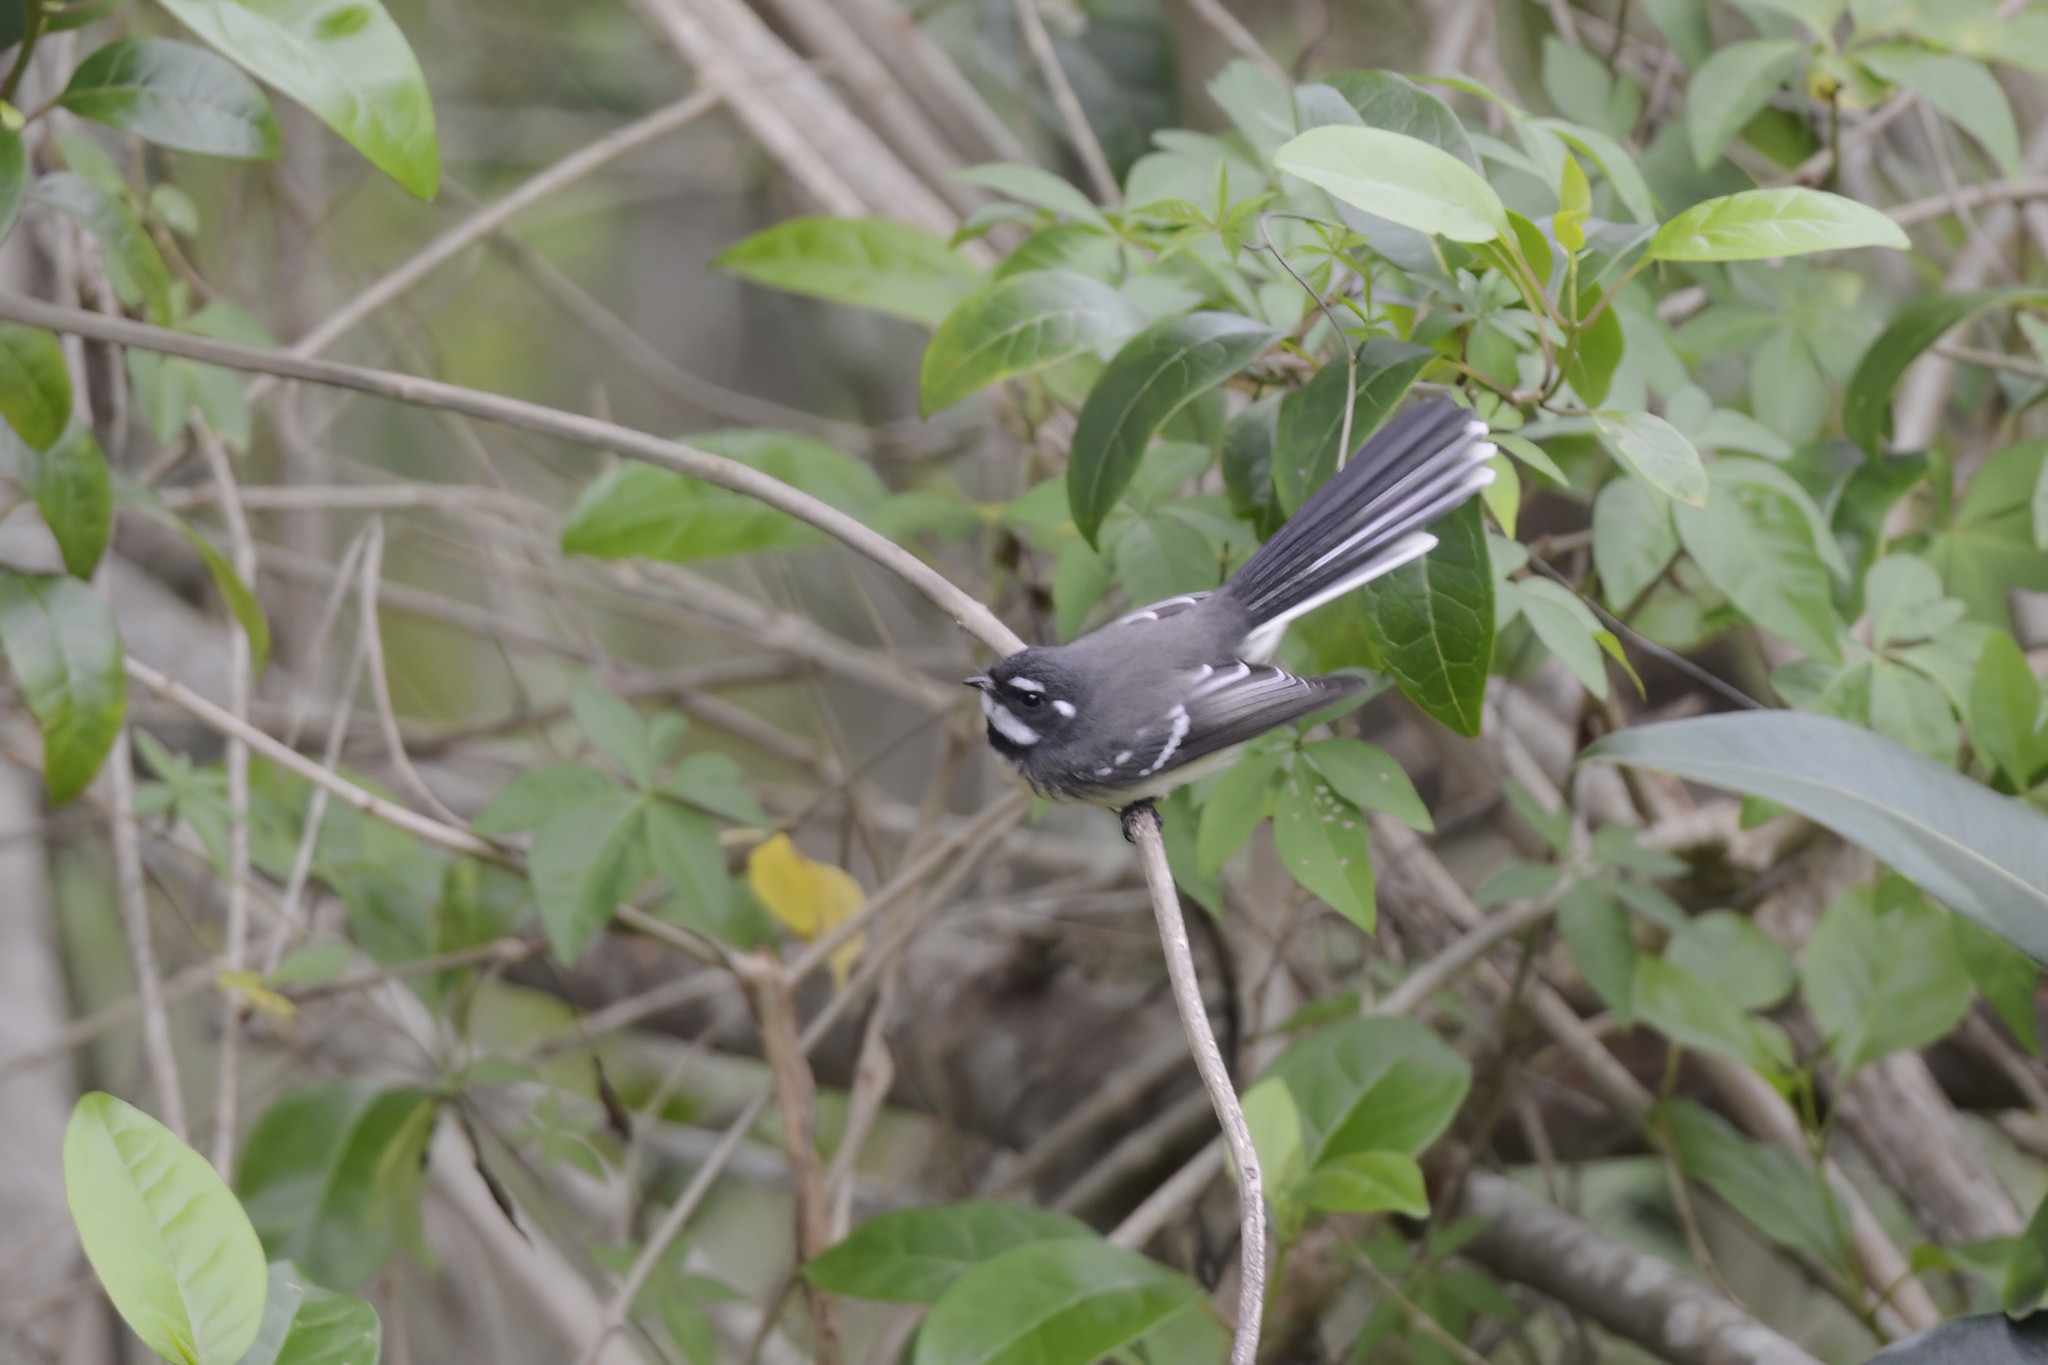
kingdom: Animalia
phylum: Chordata
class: Aves
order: Passeriformes
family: Rhipiduridae
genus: Rhipidura
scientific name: Rhipidura albiscapa
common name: Grey fantail
